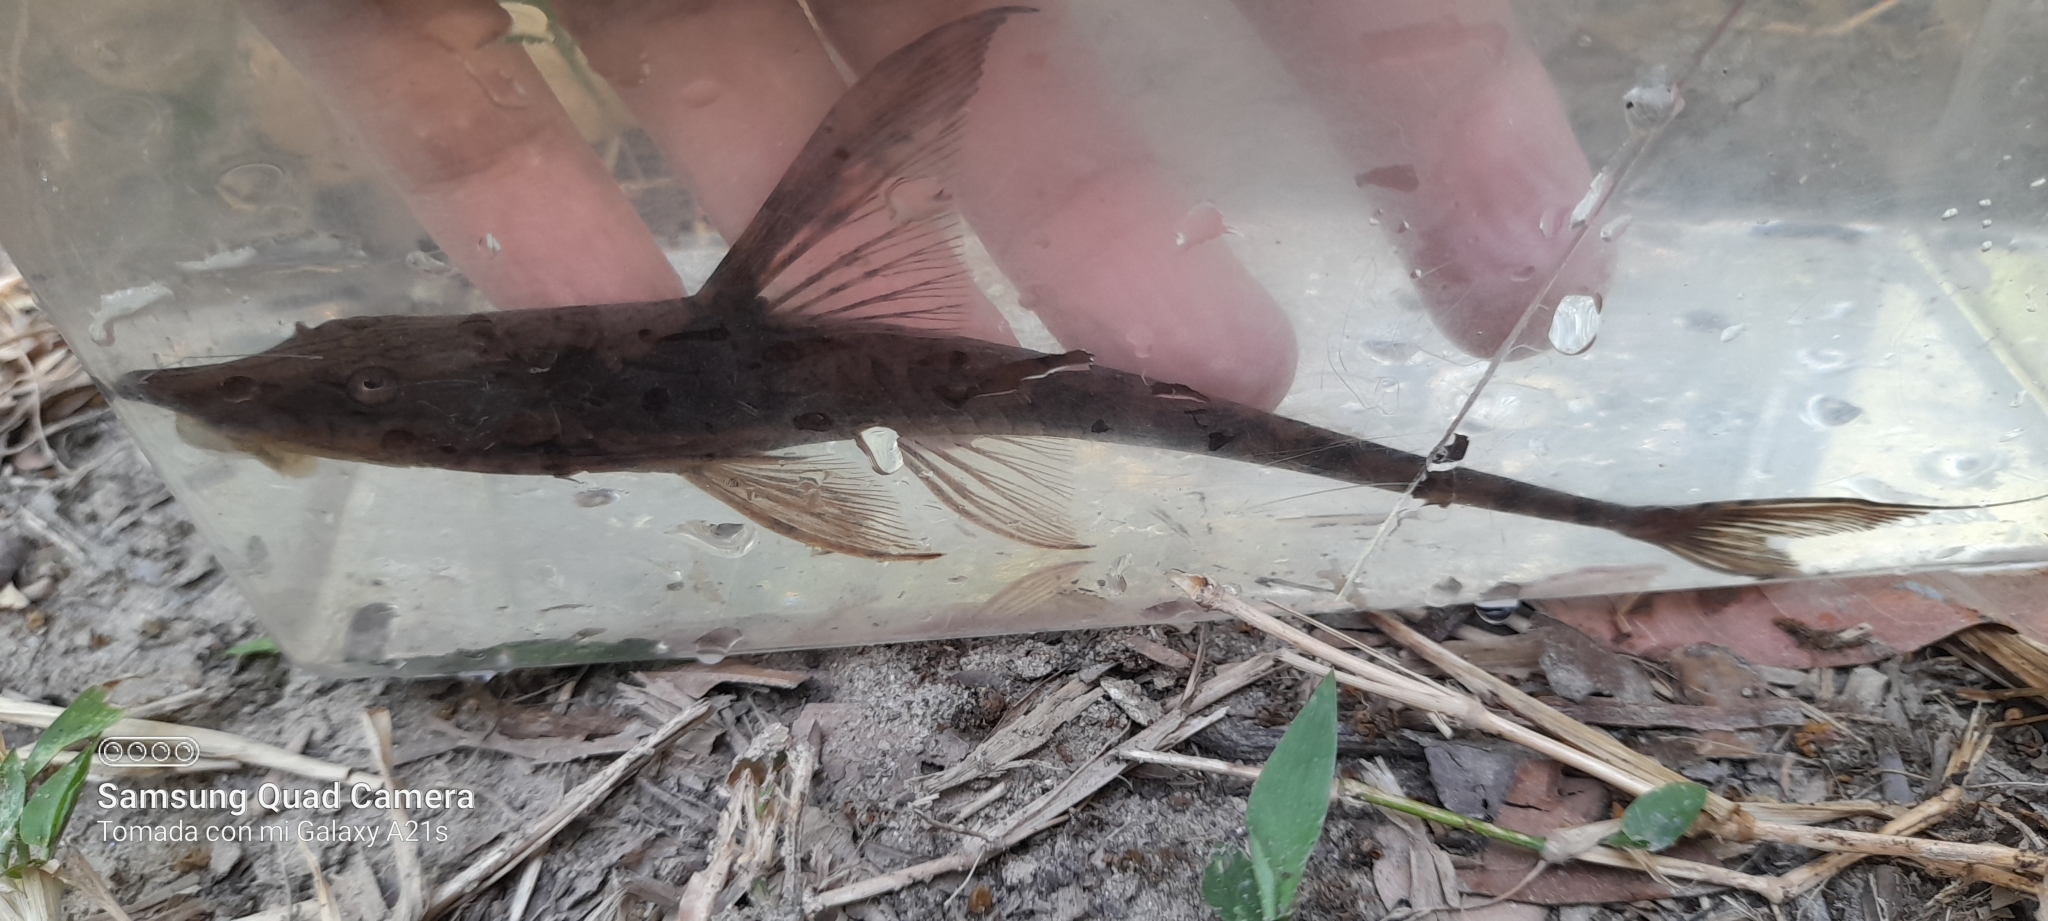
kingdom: Animalia
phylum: Chordata
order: Siluriformes
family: Loricariidae
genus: Sturisomatichthys
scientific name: Sturisomatichthys panamense
